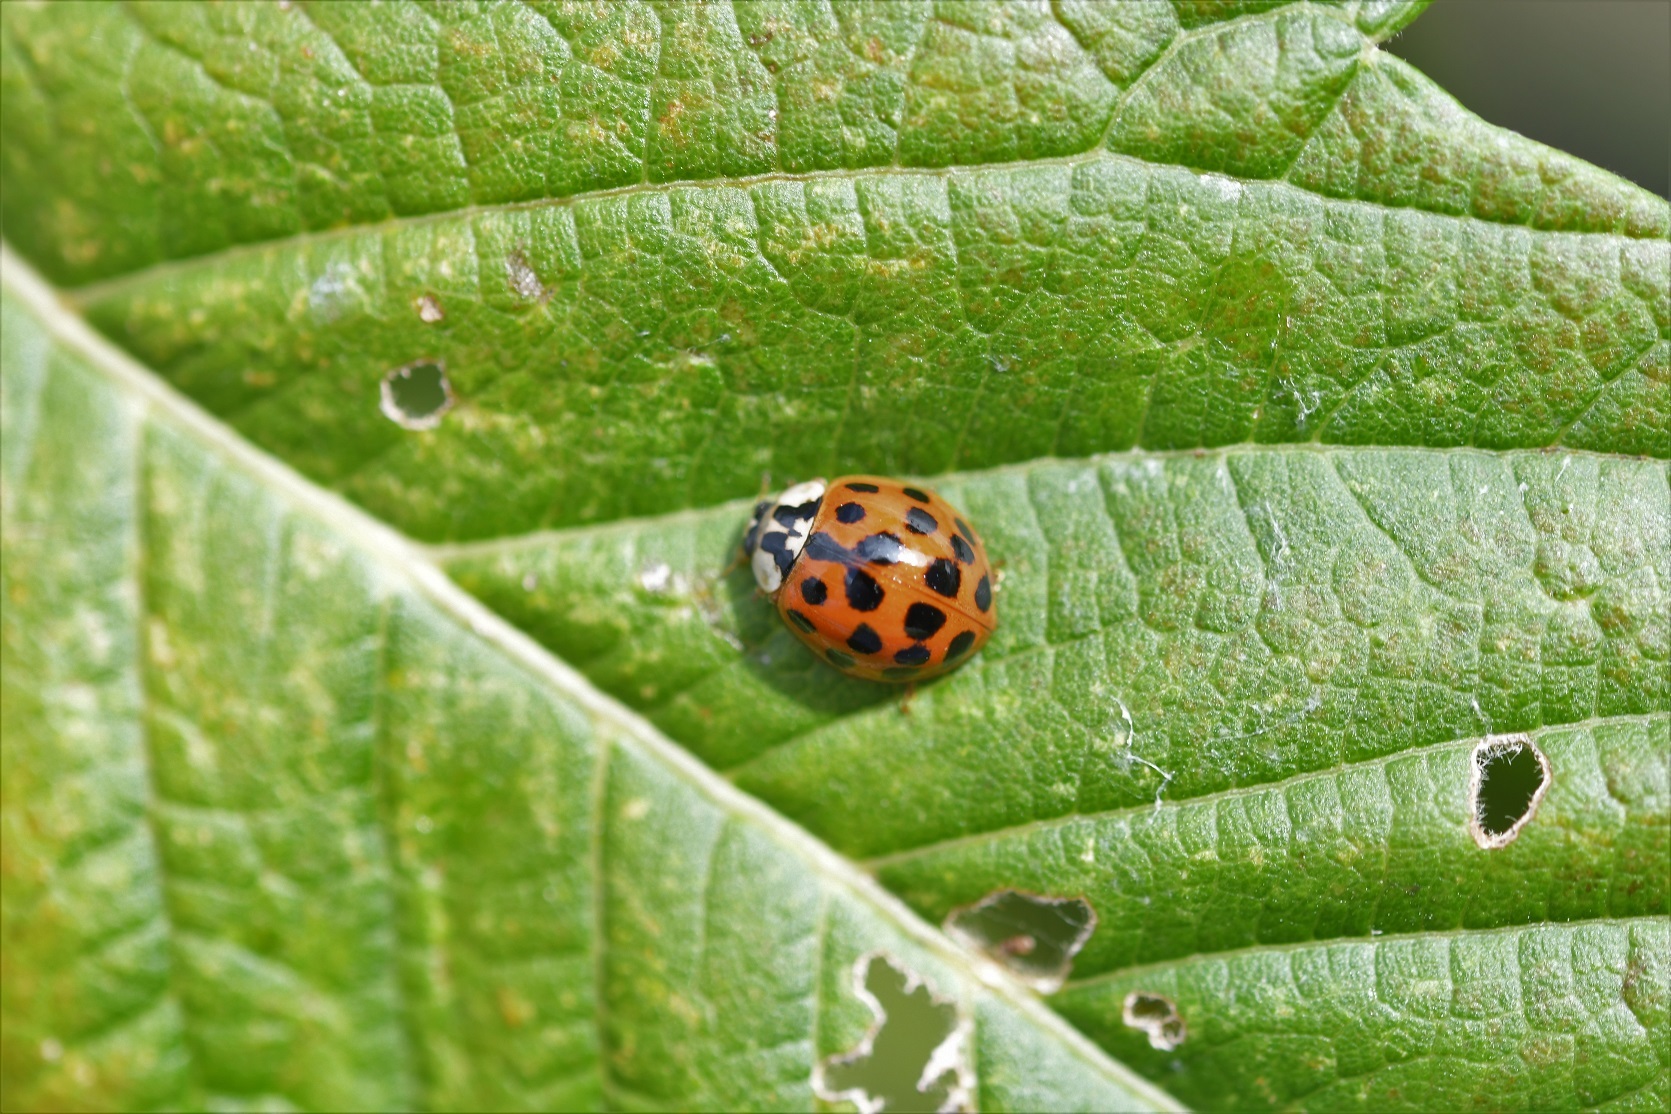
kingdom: Animalia
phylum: Arthropoda
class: Insecta
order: Coleoptera
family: Coccinellidae
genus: Harmonia
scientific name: Harmonia axyridis
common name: Harlequin ladybird
